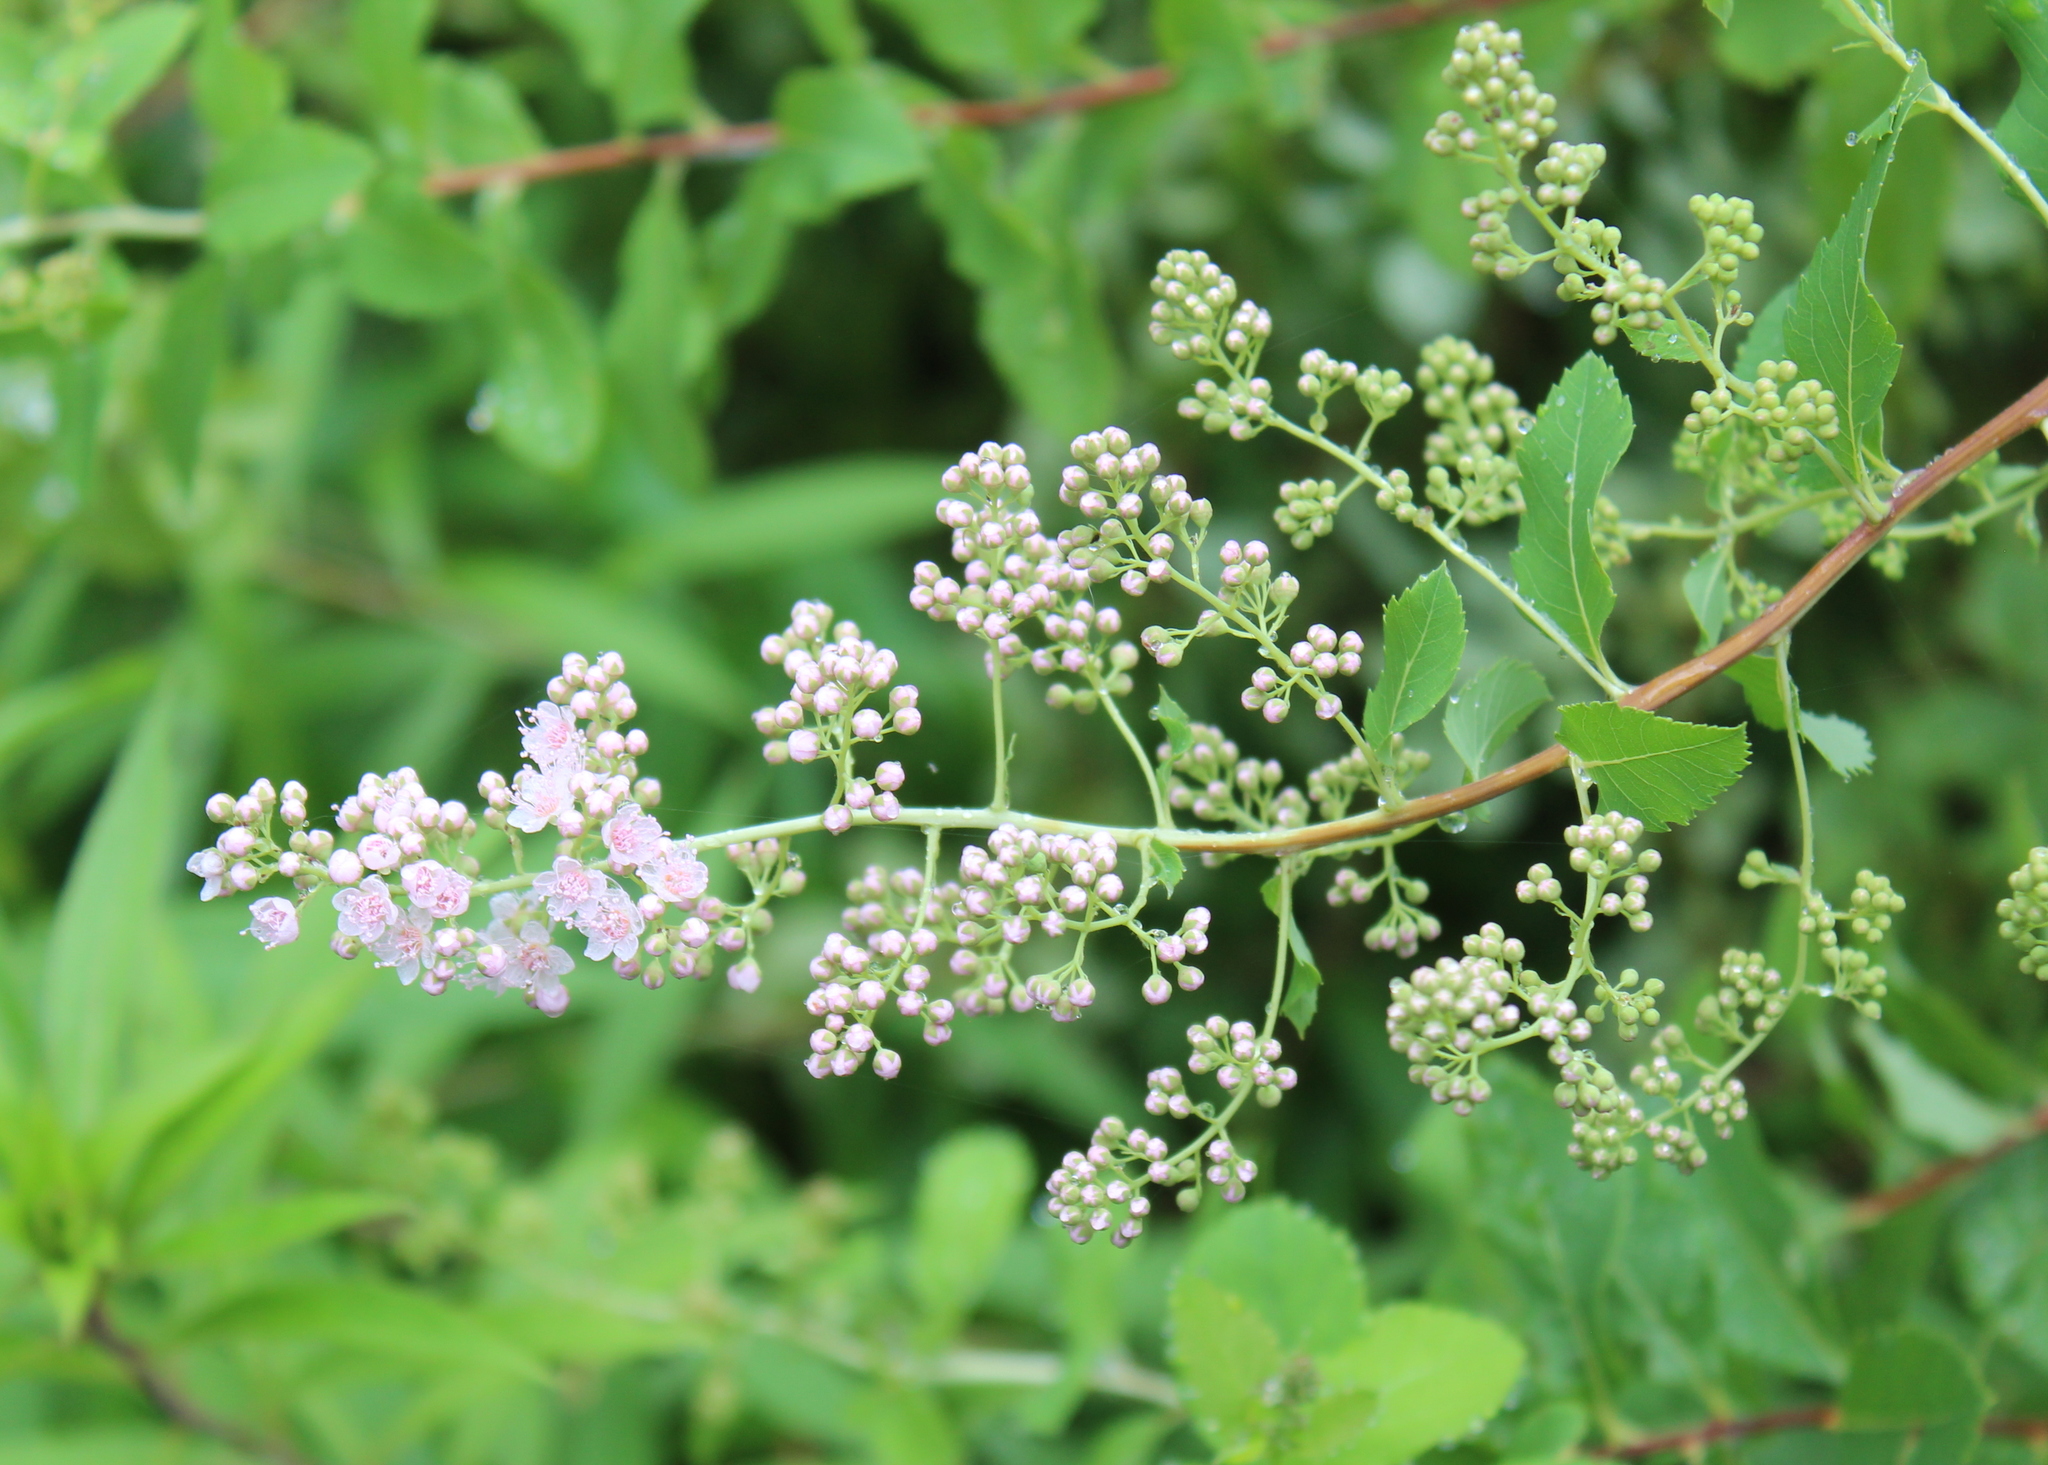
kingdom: Plantae
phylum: Tracheophyta
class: Magnoliopsida
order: Rosales
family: Rosaceae
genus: Spiraea
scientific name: Spiraea alba
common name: Pale bridewort
